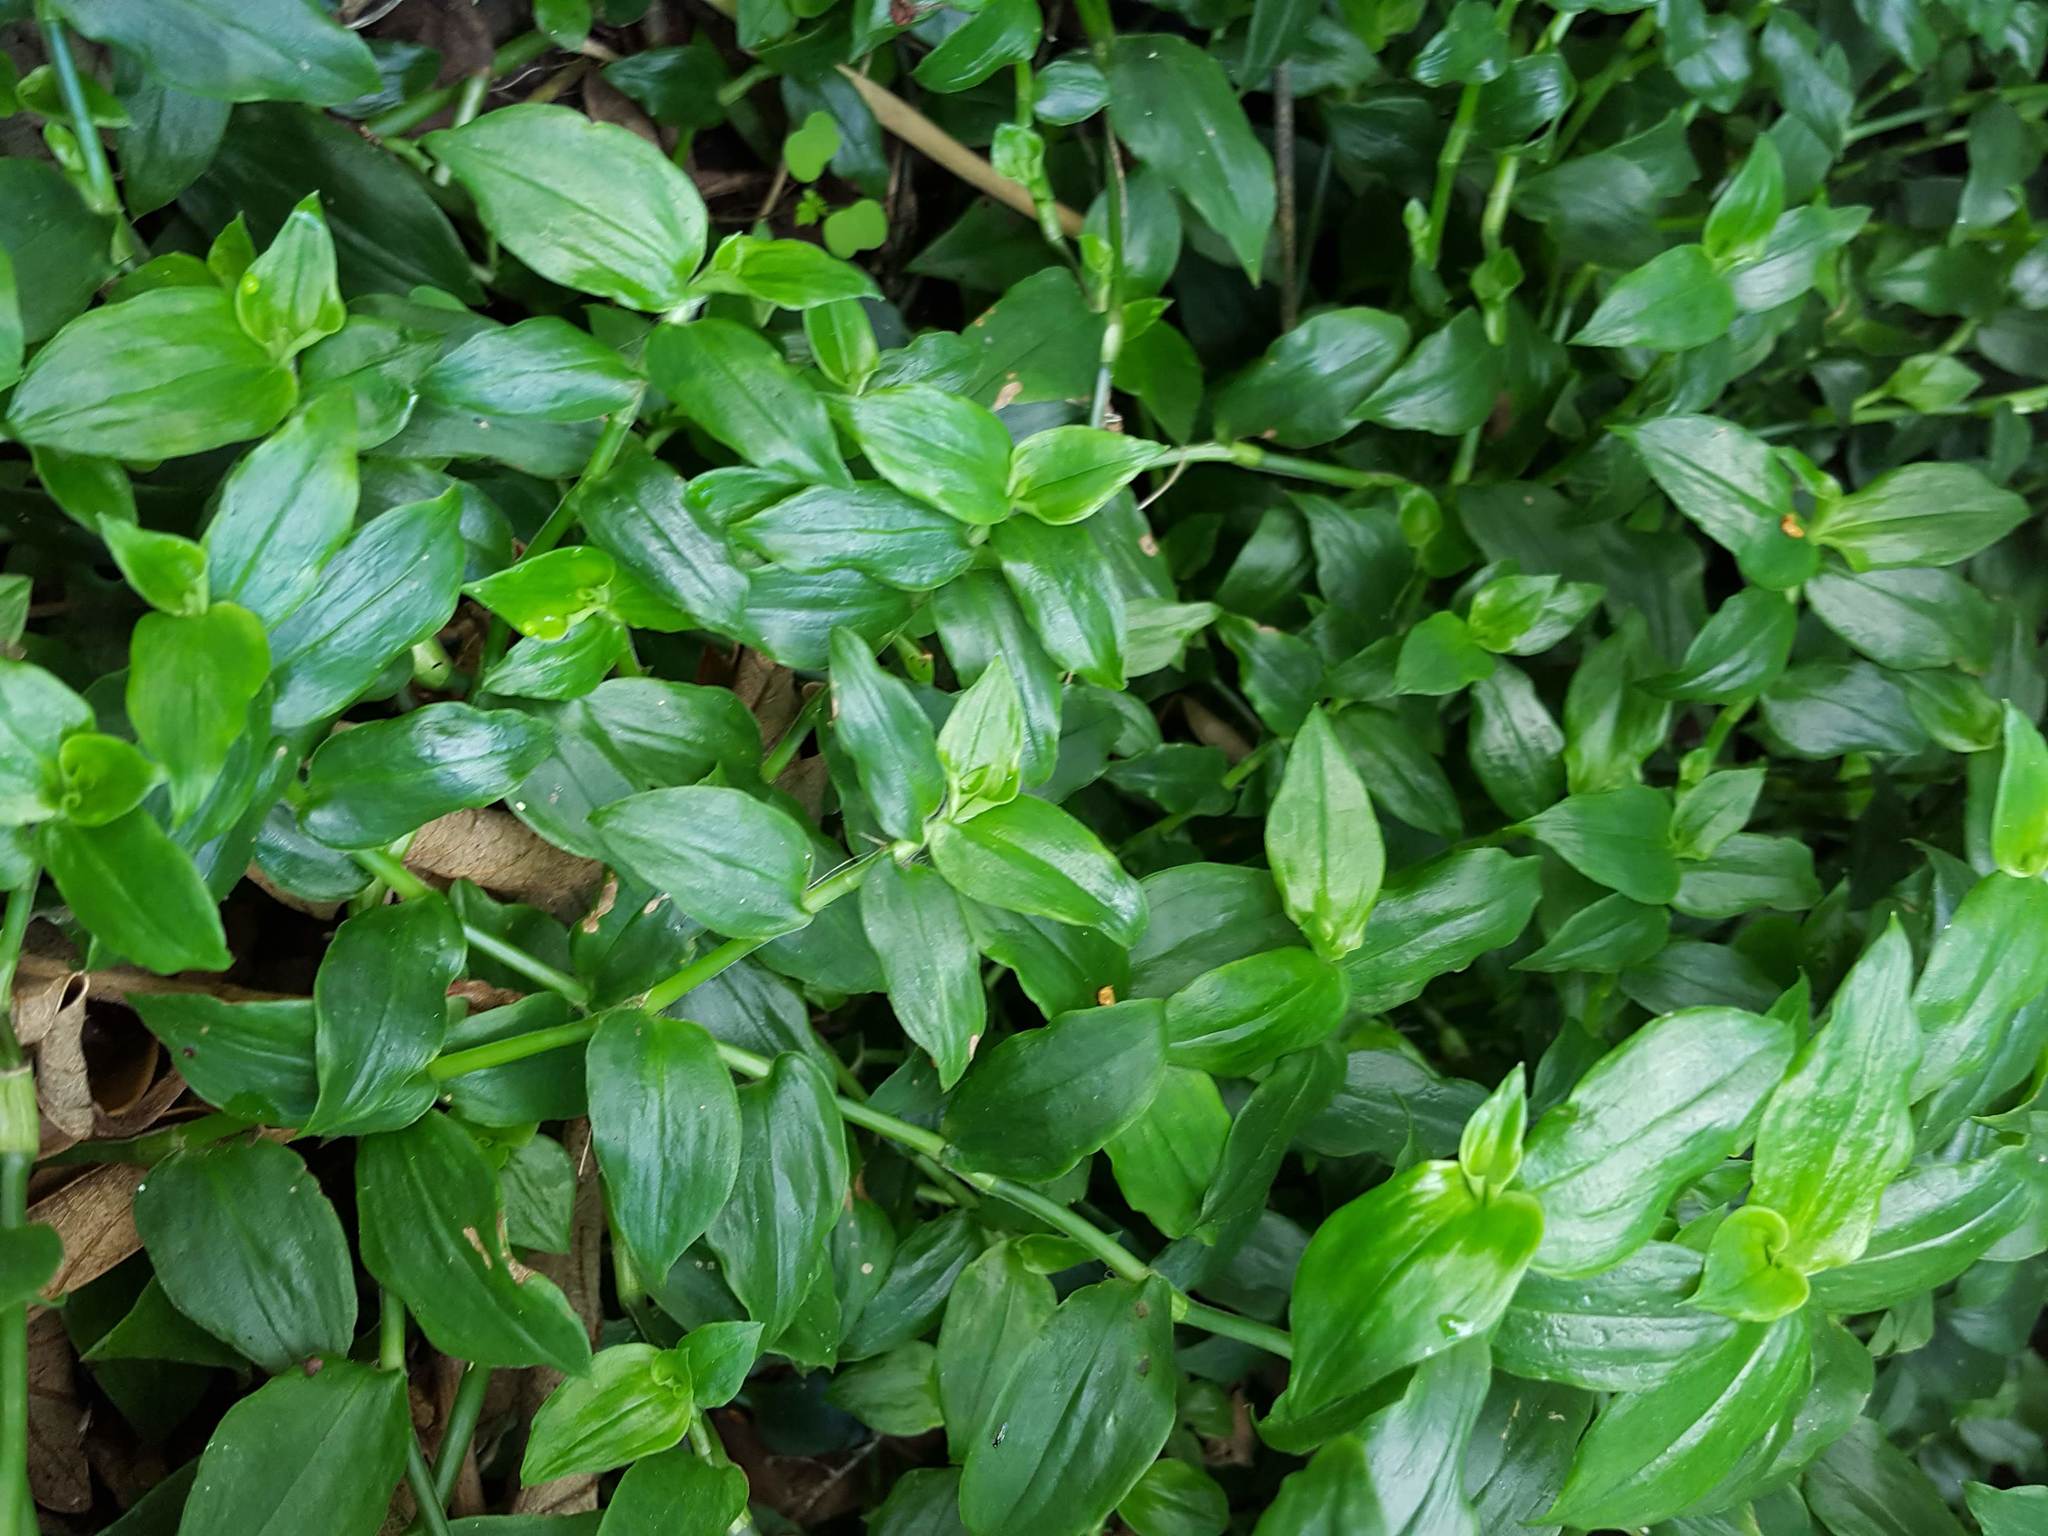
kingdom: Plantae
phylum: Tracheophyta
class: Liliopsida
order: Commelinales
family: Commelinaceae
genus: Tradescantia
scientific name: Tradescantia fluminensis
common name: Wandering-jew
